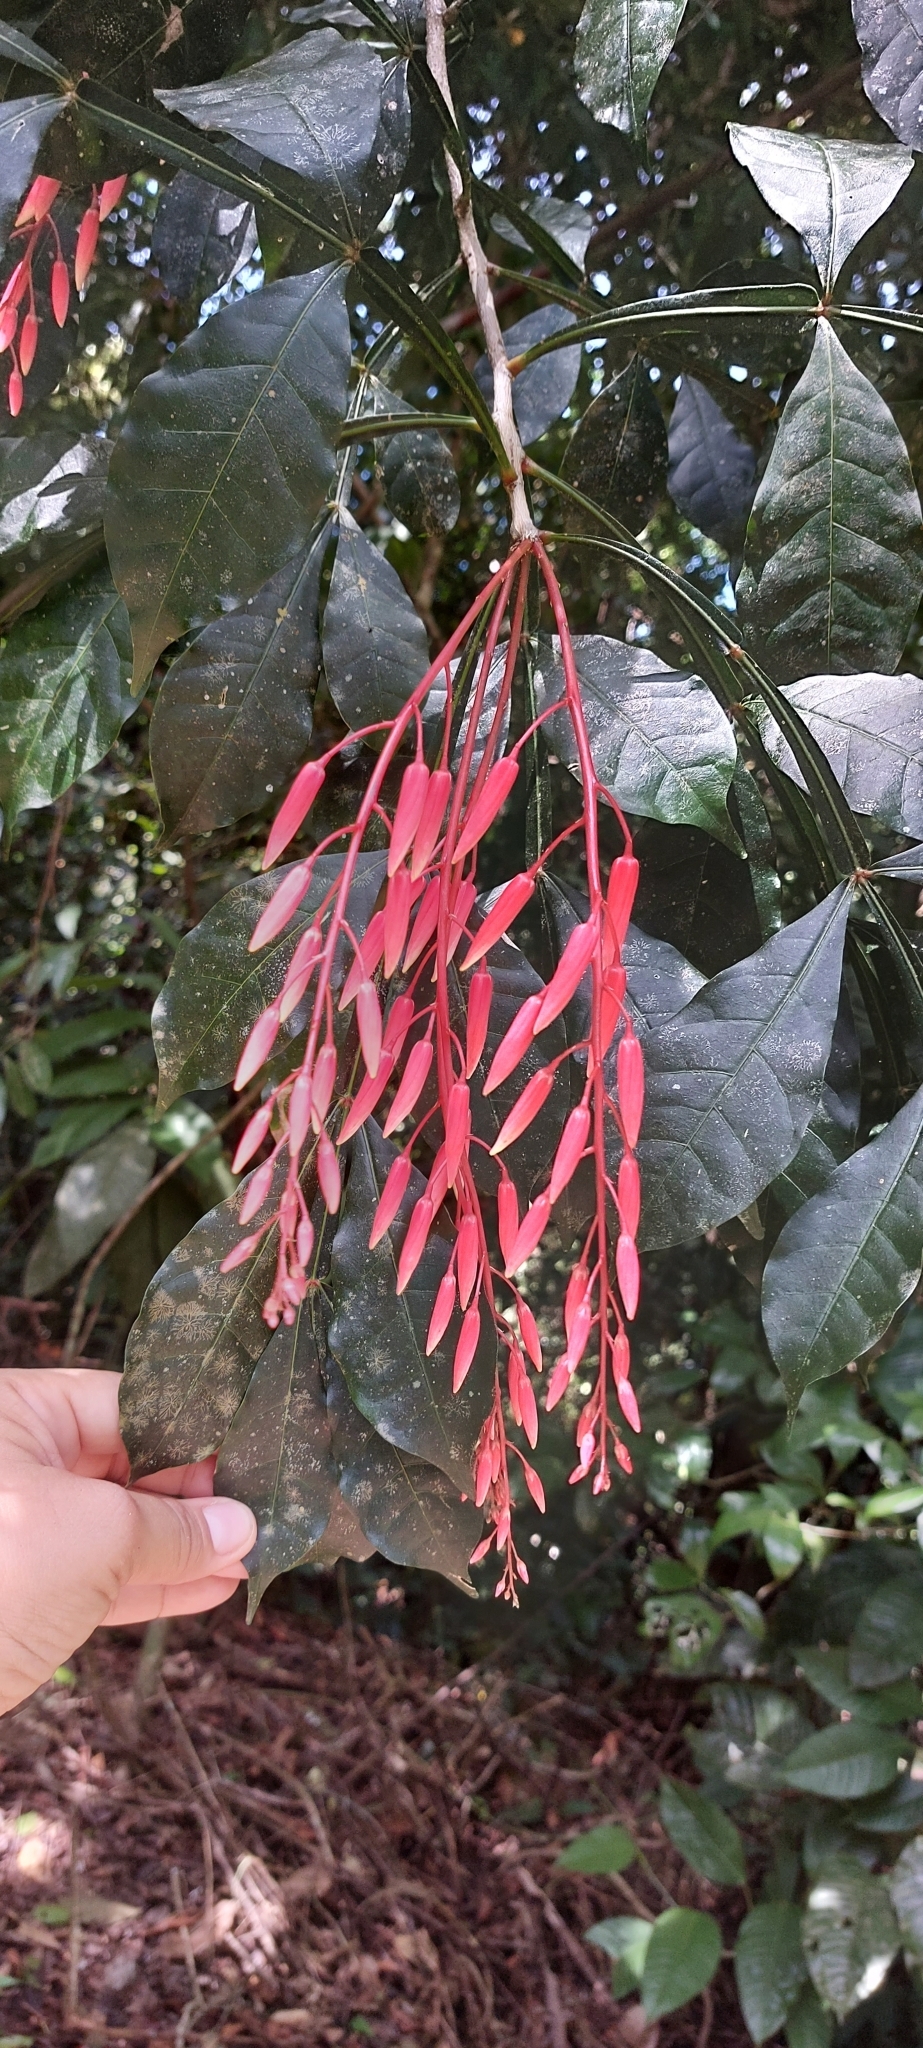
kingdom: Plantae
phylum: Tracheophyta
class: Magnoliopsida
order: Sapindales
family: Simaroubaceae
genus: Quassia
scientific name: Quassia amara
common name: Quassia
